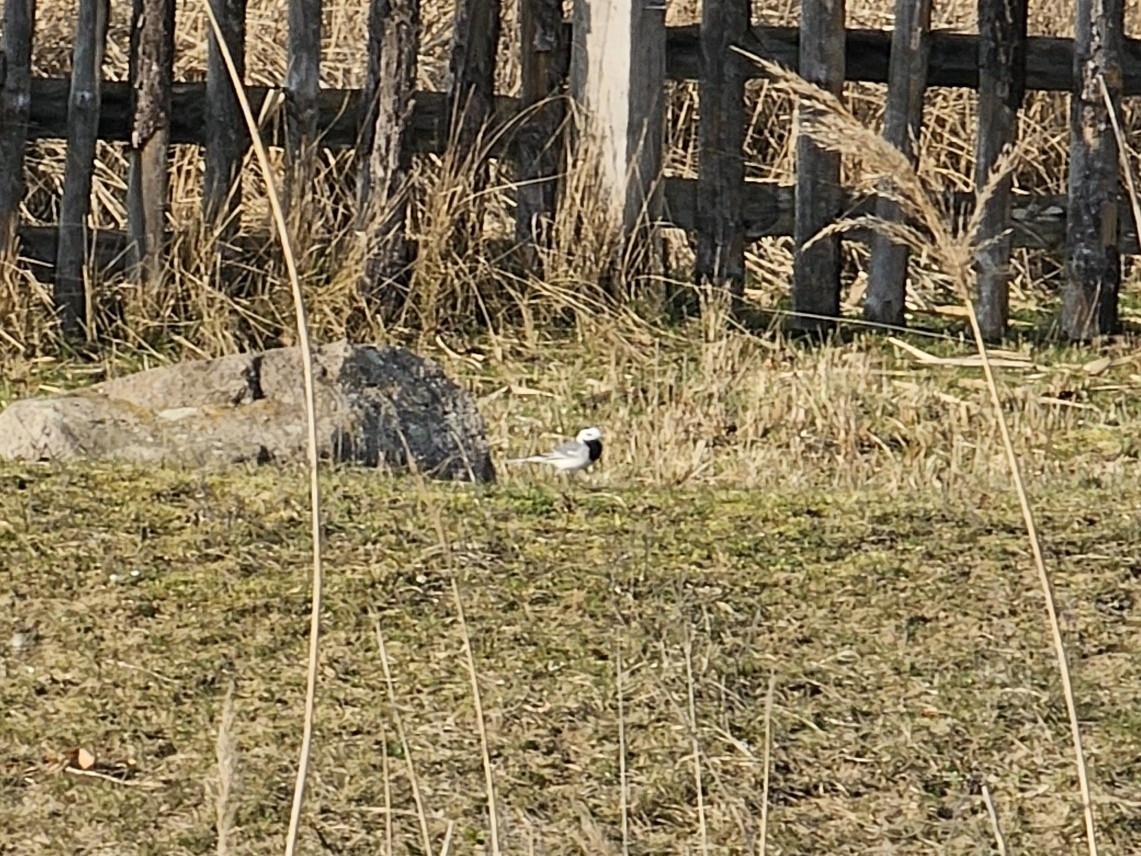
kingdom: Animalia
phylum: Chordata
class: Aves
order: Passeriformes
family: Motacillidae
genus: Motacilla
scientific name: Motacilla alba
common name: White wagtail
